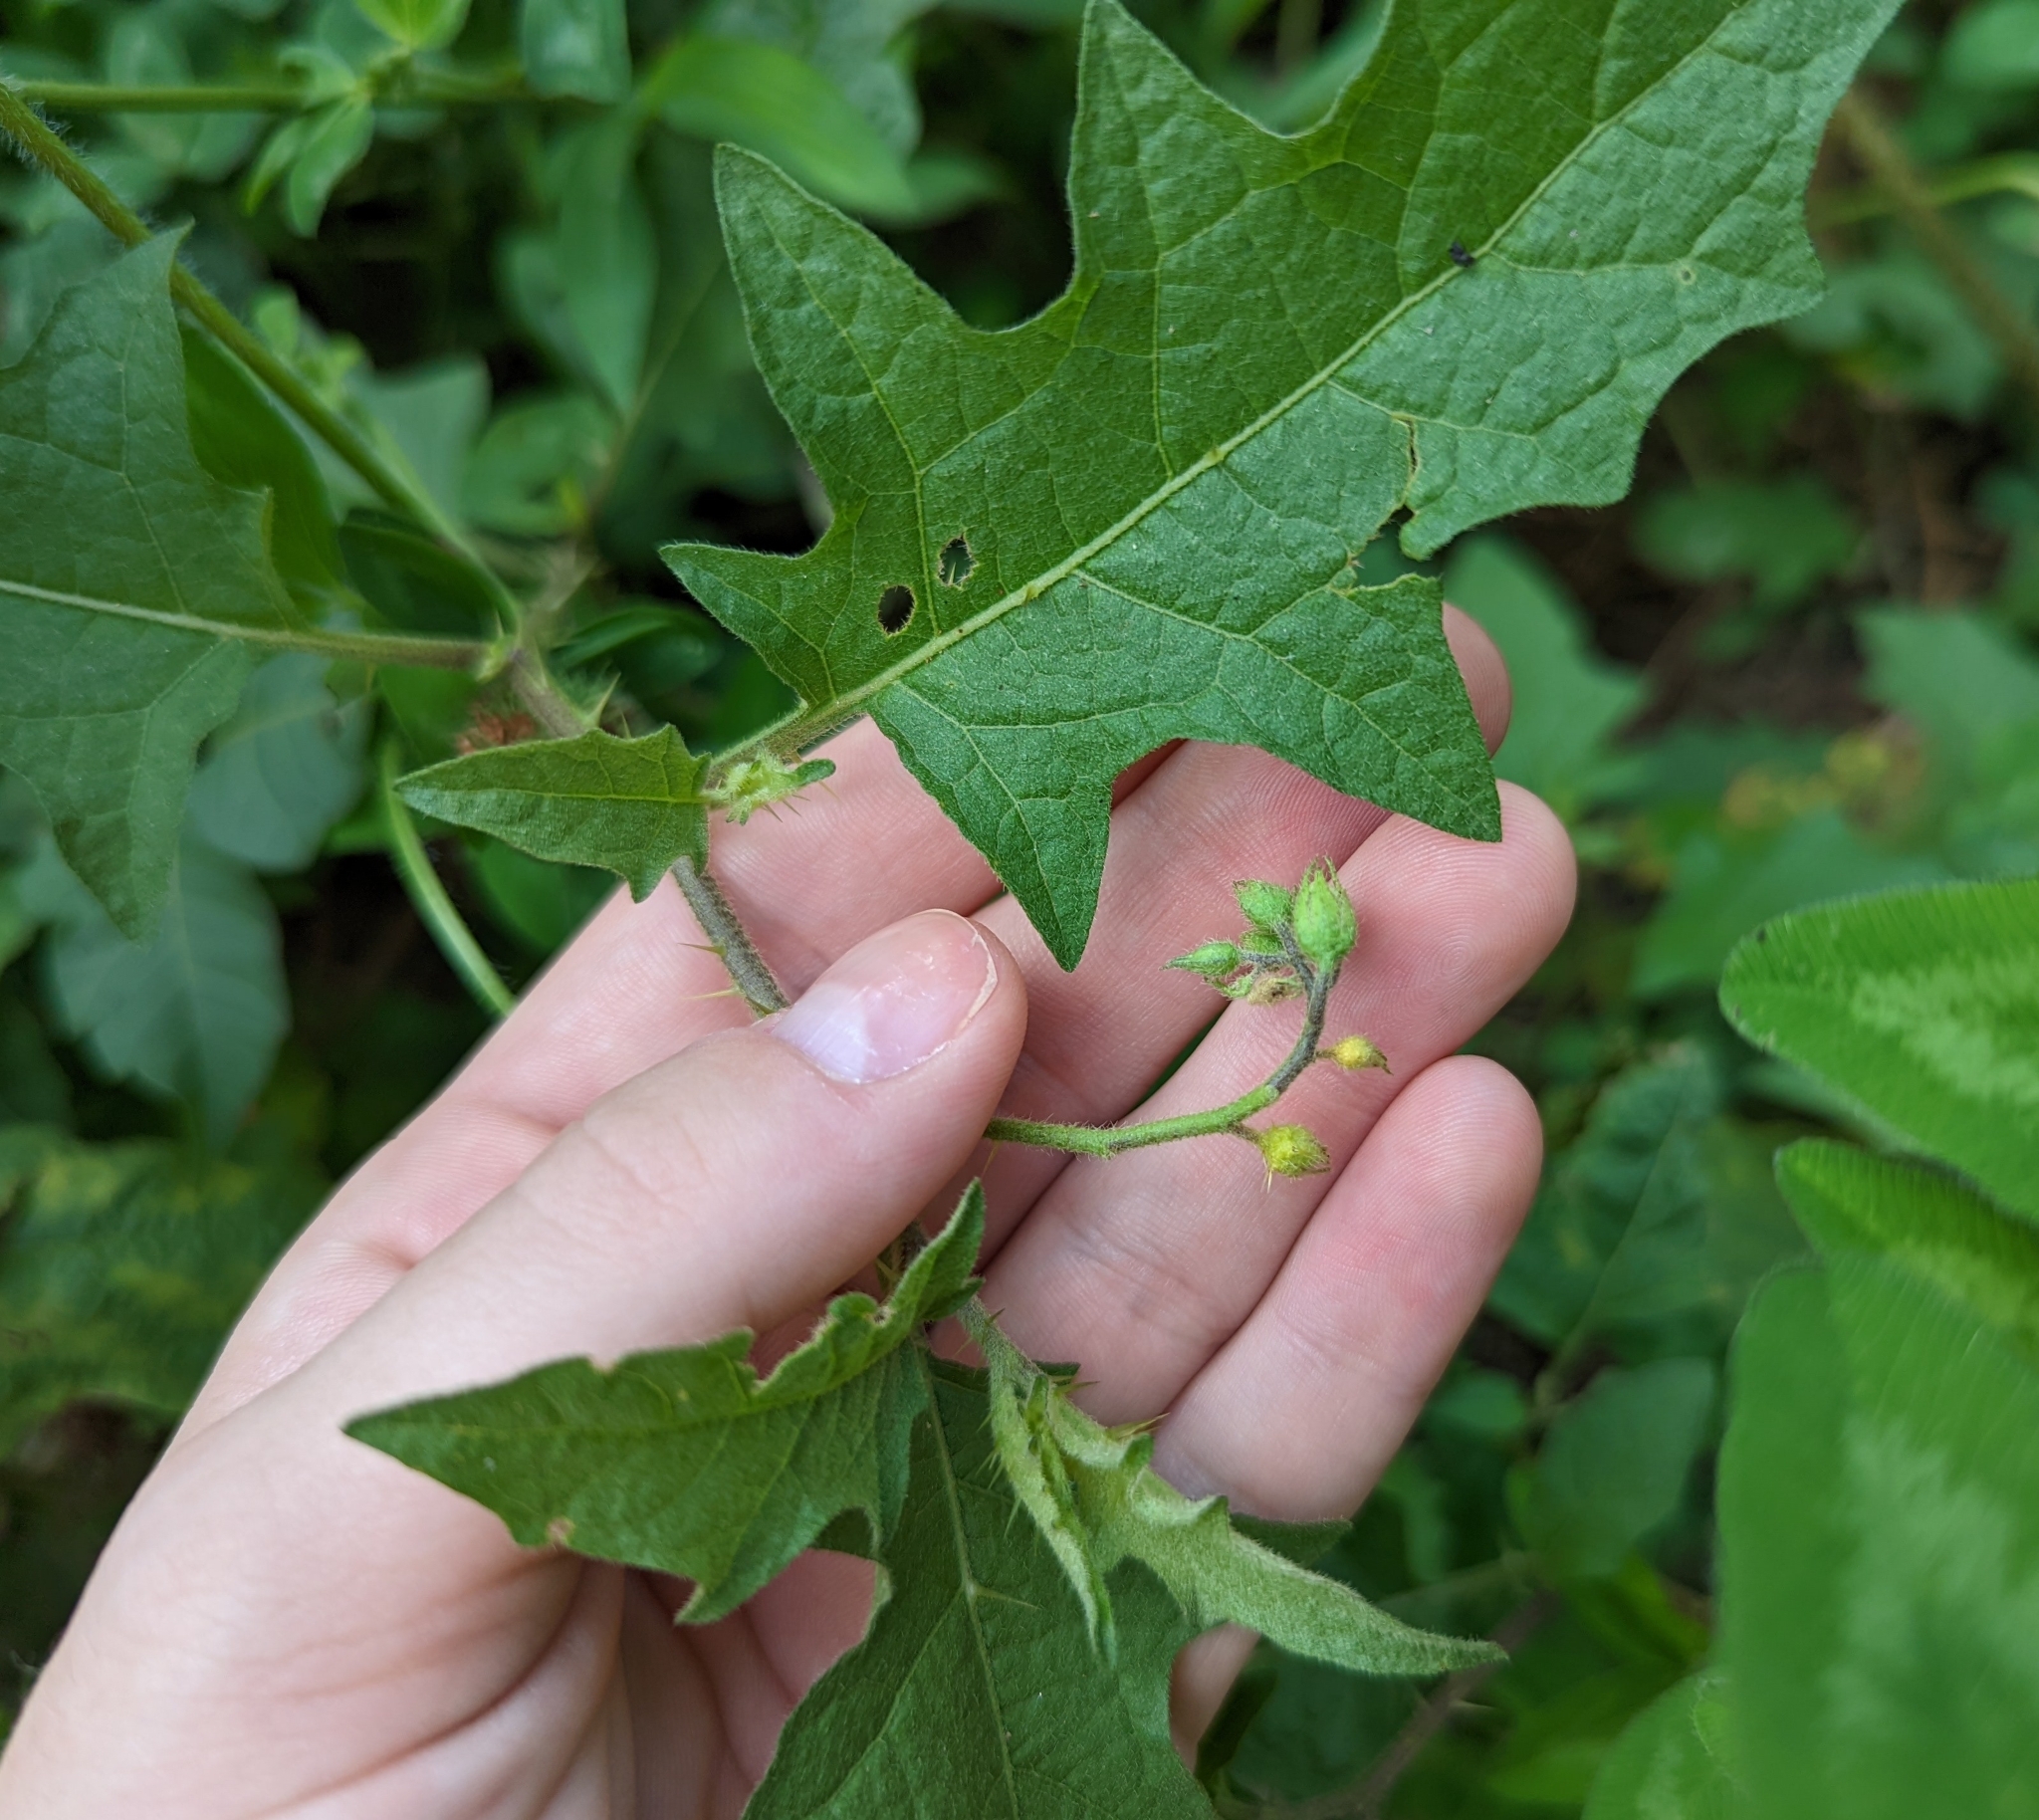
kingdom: Plantae
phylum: Tracheophyta
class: Magnoliopsida
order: Solanales
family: Solanaceae
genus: Solanum
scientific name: Solanum carolinense
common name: Horse-nettle
